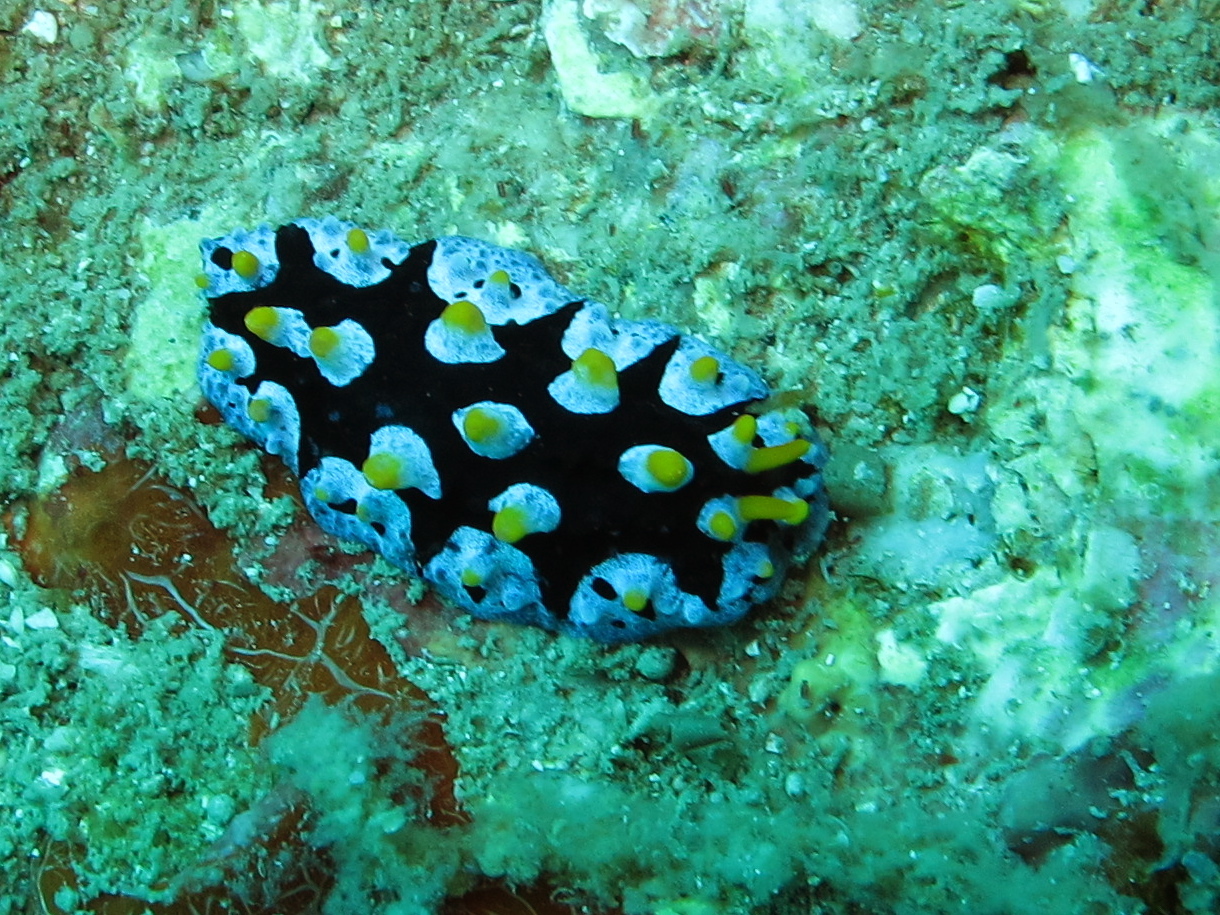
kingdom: Animalia
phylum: Mollusca
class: Gastropoda
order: Nudibranchia
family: Phyllidiidae
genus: Phyllidia
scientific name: Phyllidia picta
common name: Black-rayed phyllidia
